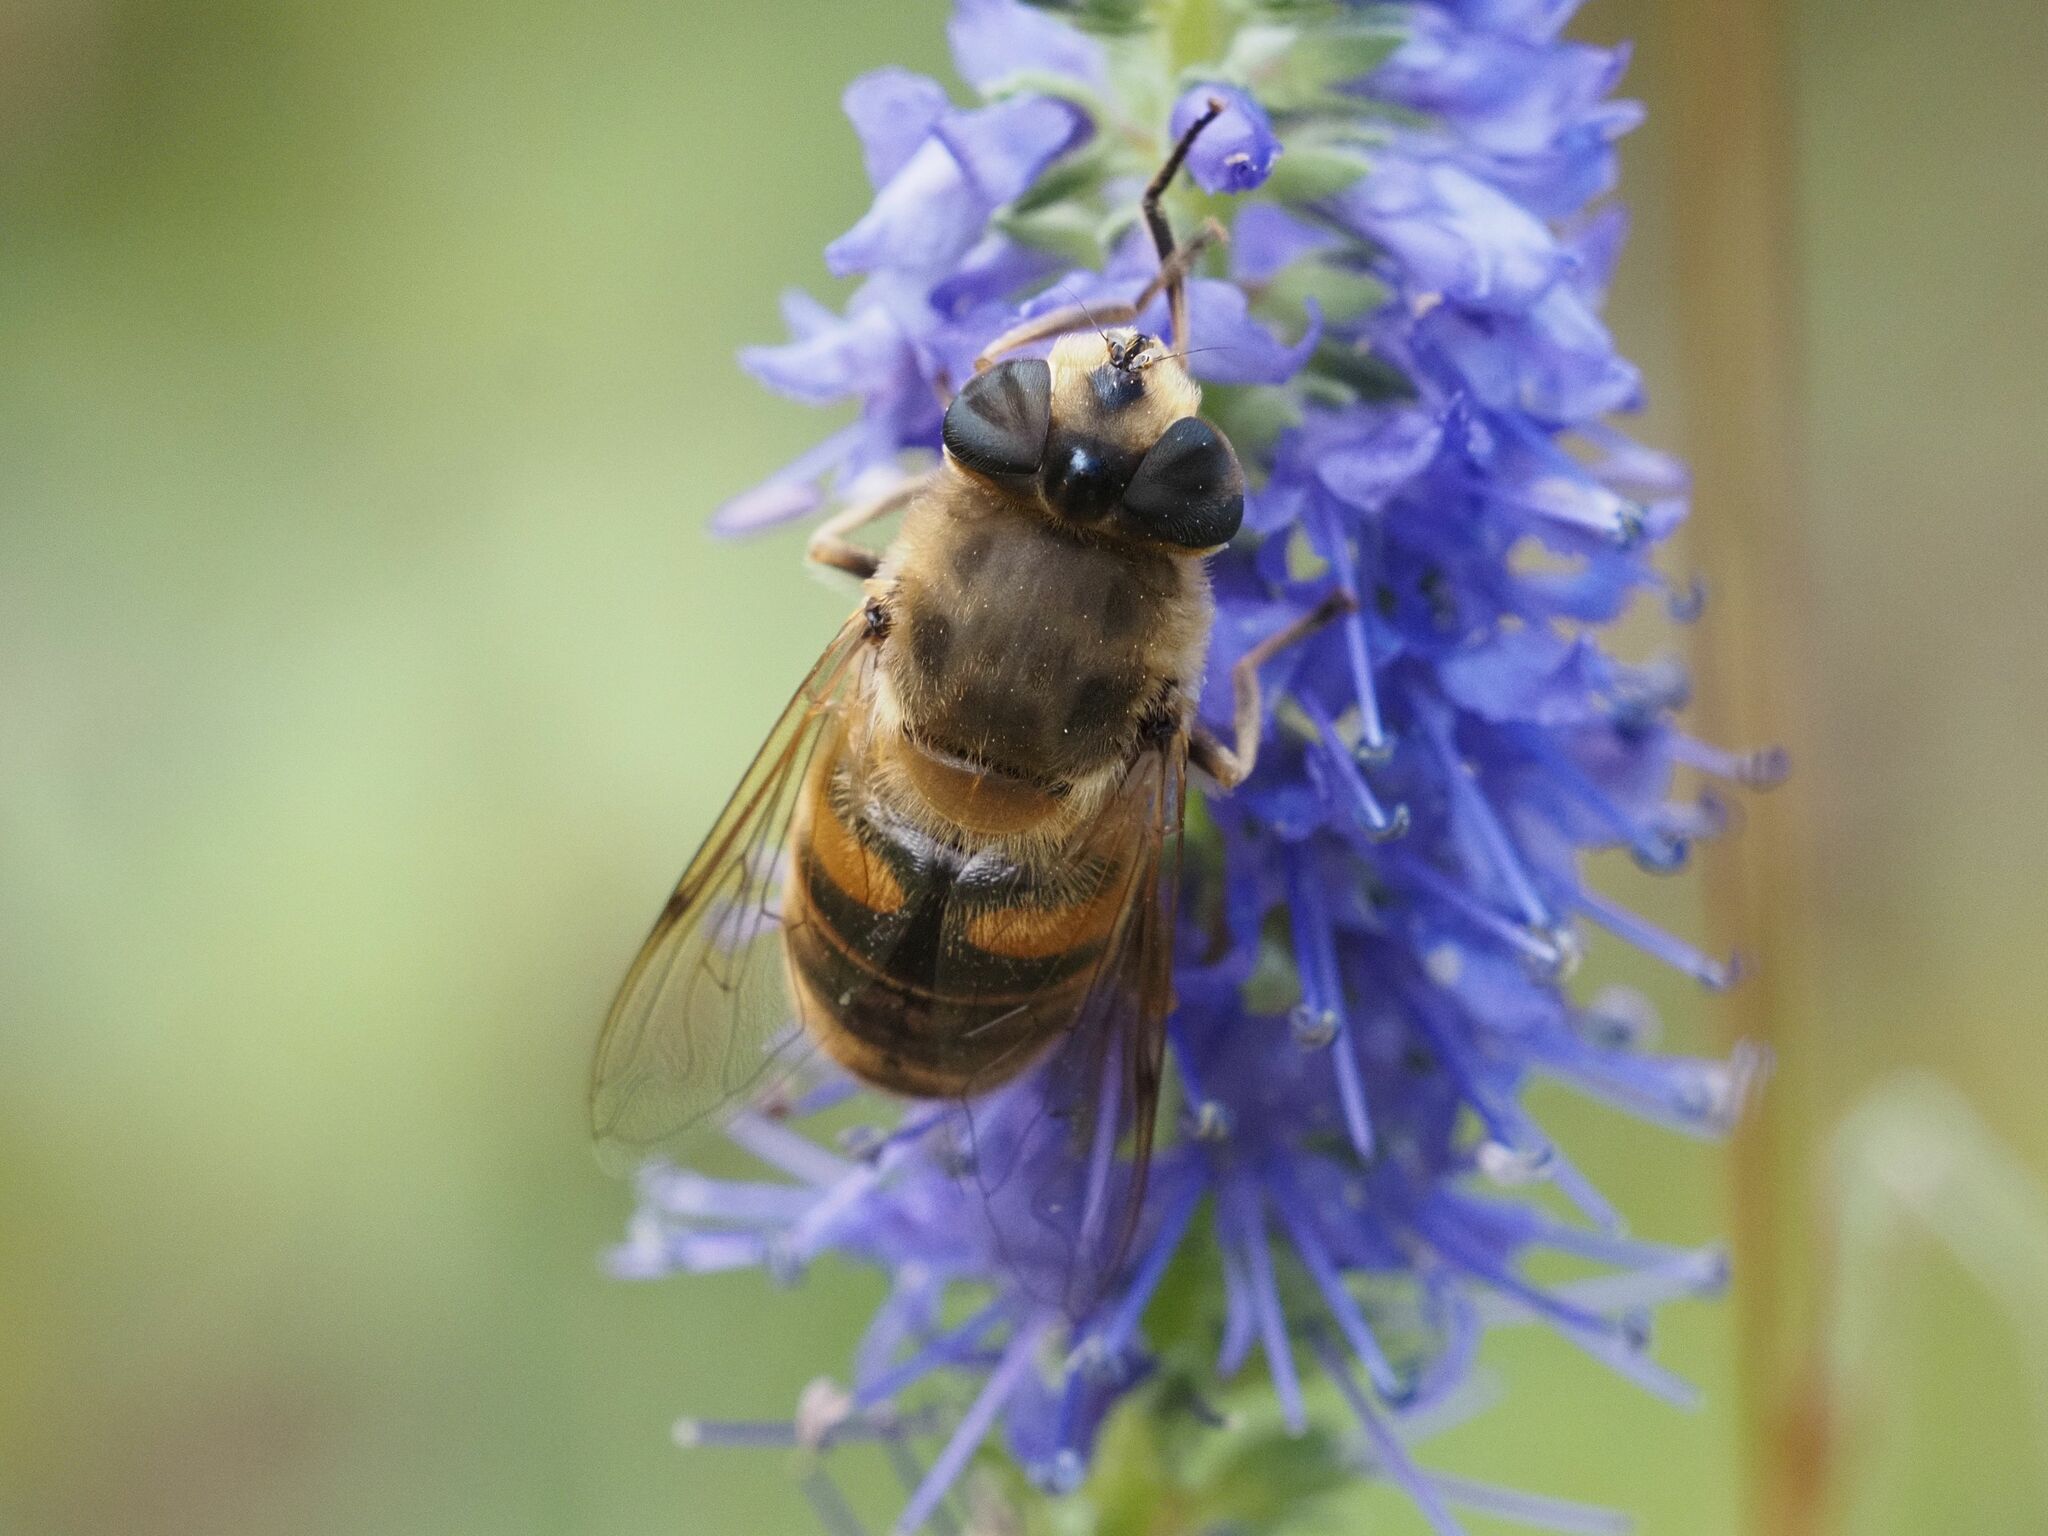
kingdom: Animalia
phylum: Arthropoda
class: Insecta
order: Diptera
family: Syrphidae
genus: Eristalis
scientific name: Eristalis tenax
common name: Drone fly
